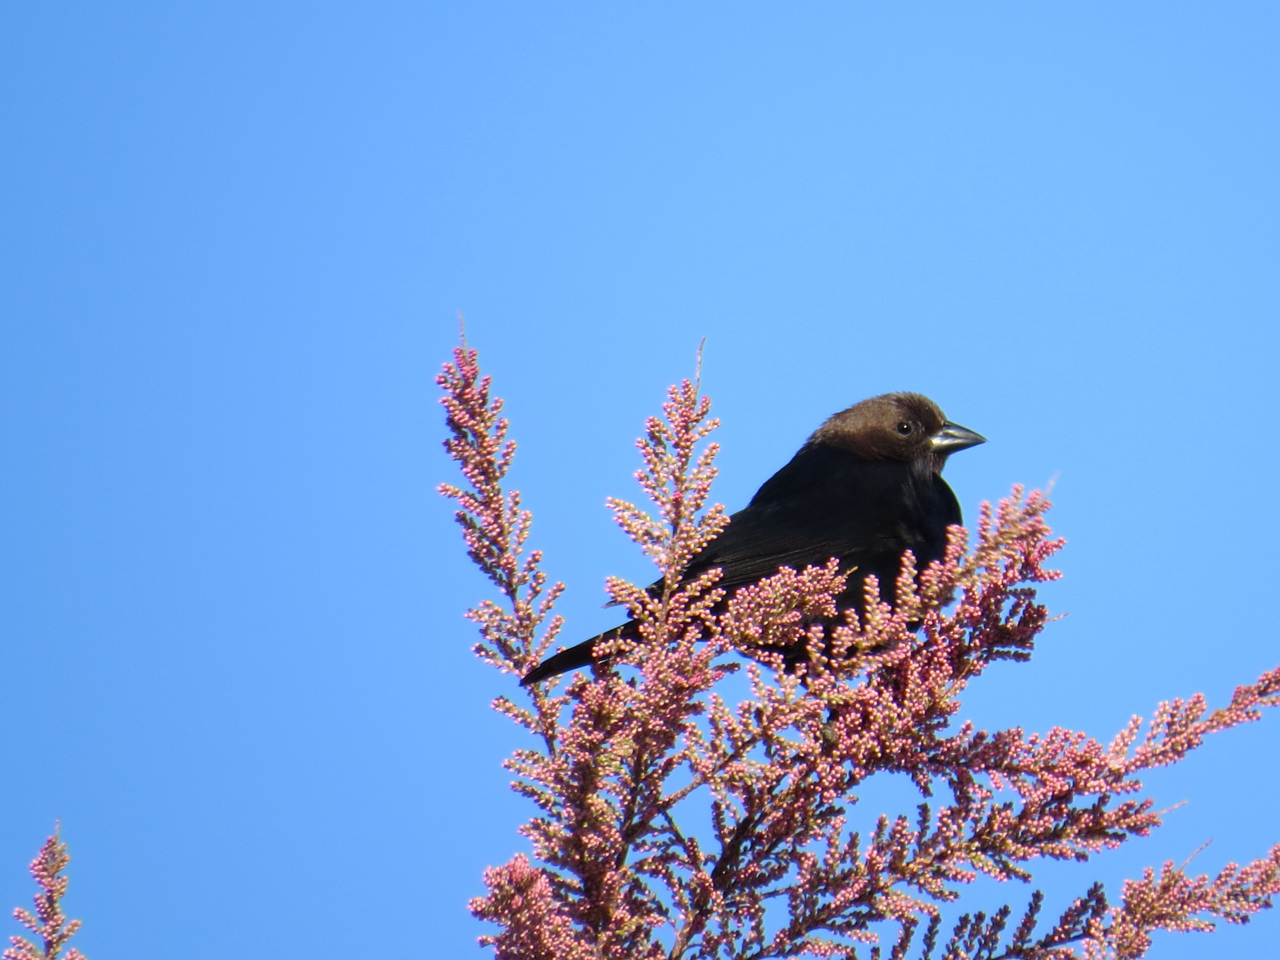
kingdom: Animalia
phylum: Chordata
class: Aves
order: Passeriformes
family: Icteridae
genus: Molothrus
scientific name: Molothrus ater
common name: Brown-headed cowbird
